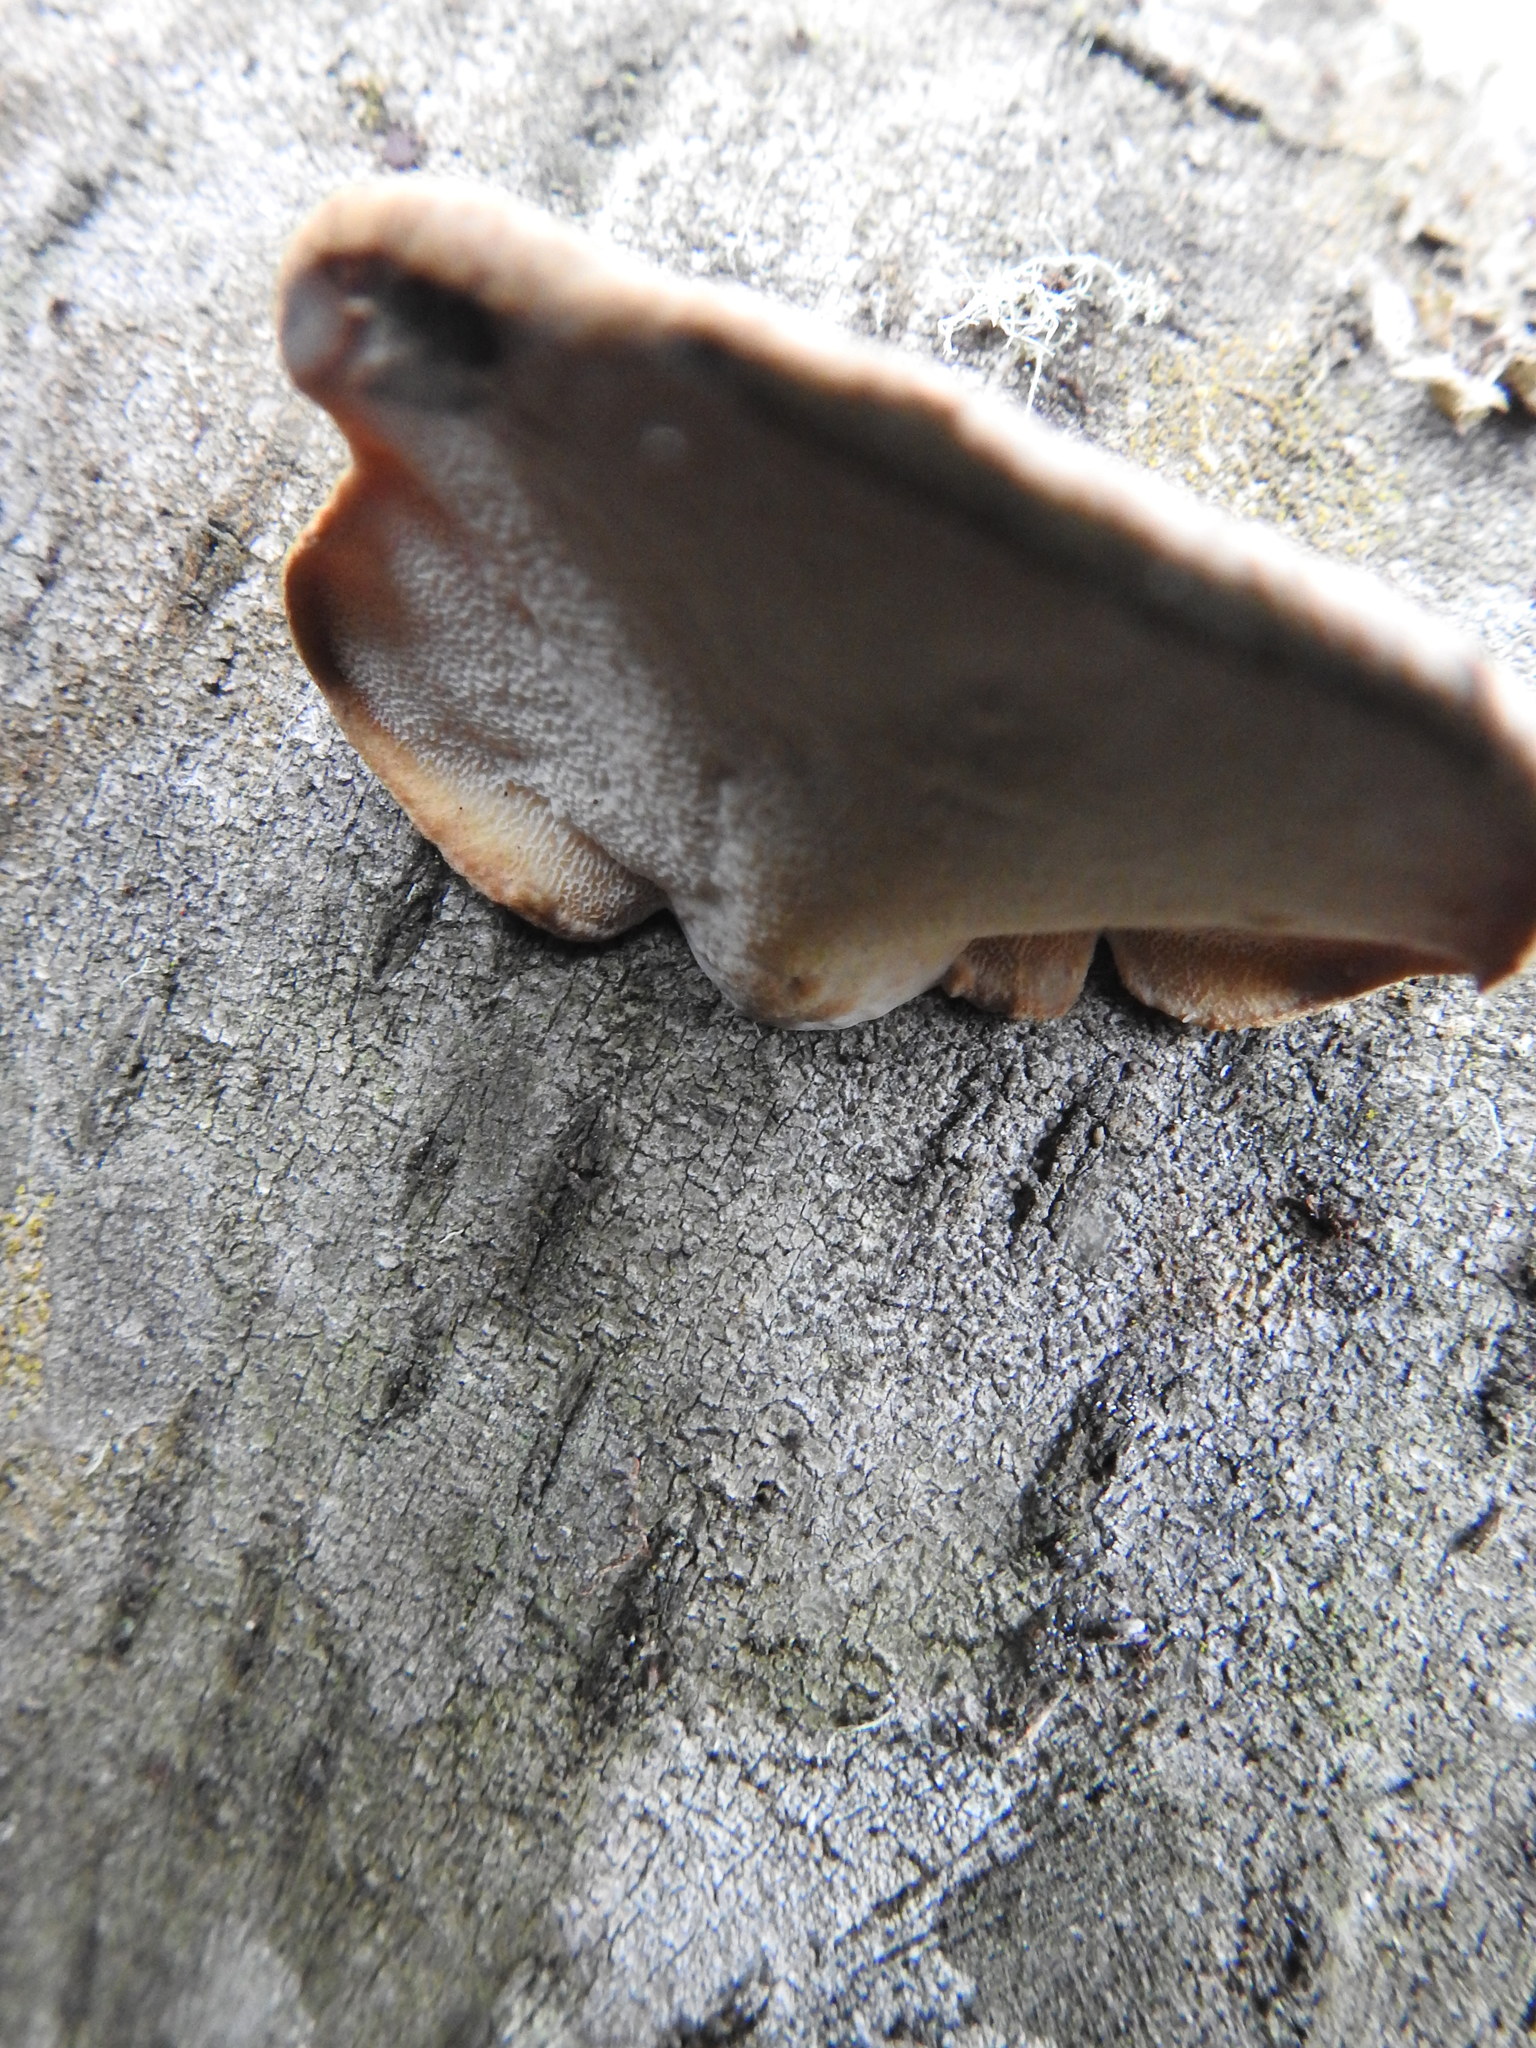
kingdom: Fungi
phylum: Basidiomycota
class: Agaricomycetes
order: Polyporales
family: Polyporaceae
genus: Polyporus
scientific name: Polyporus gayanus
